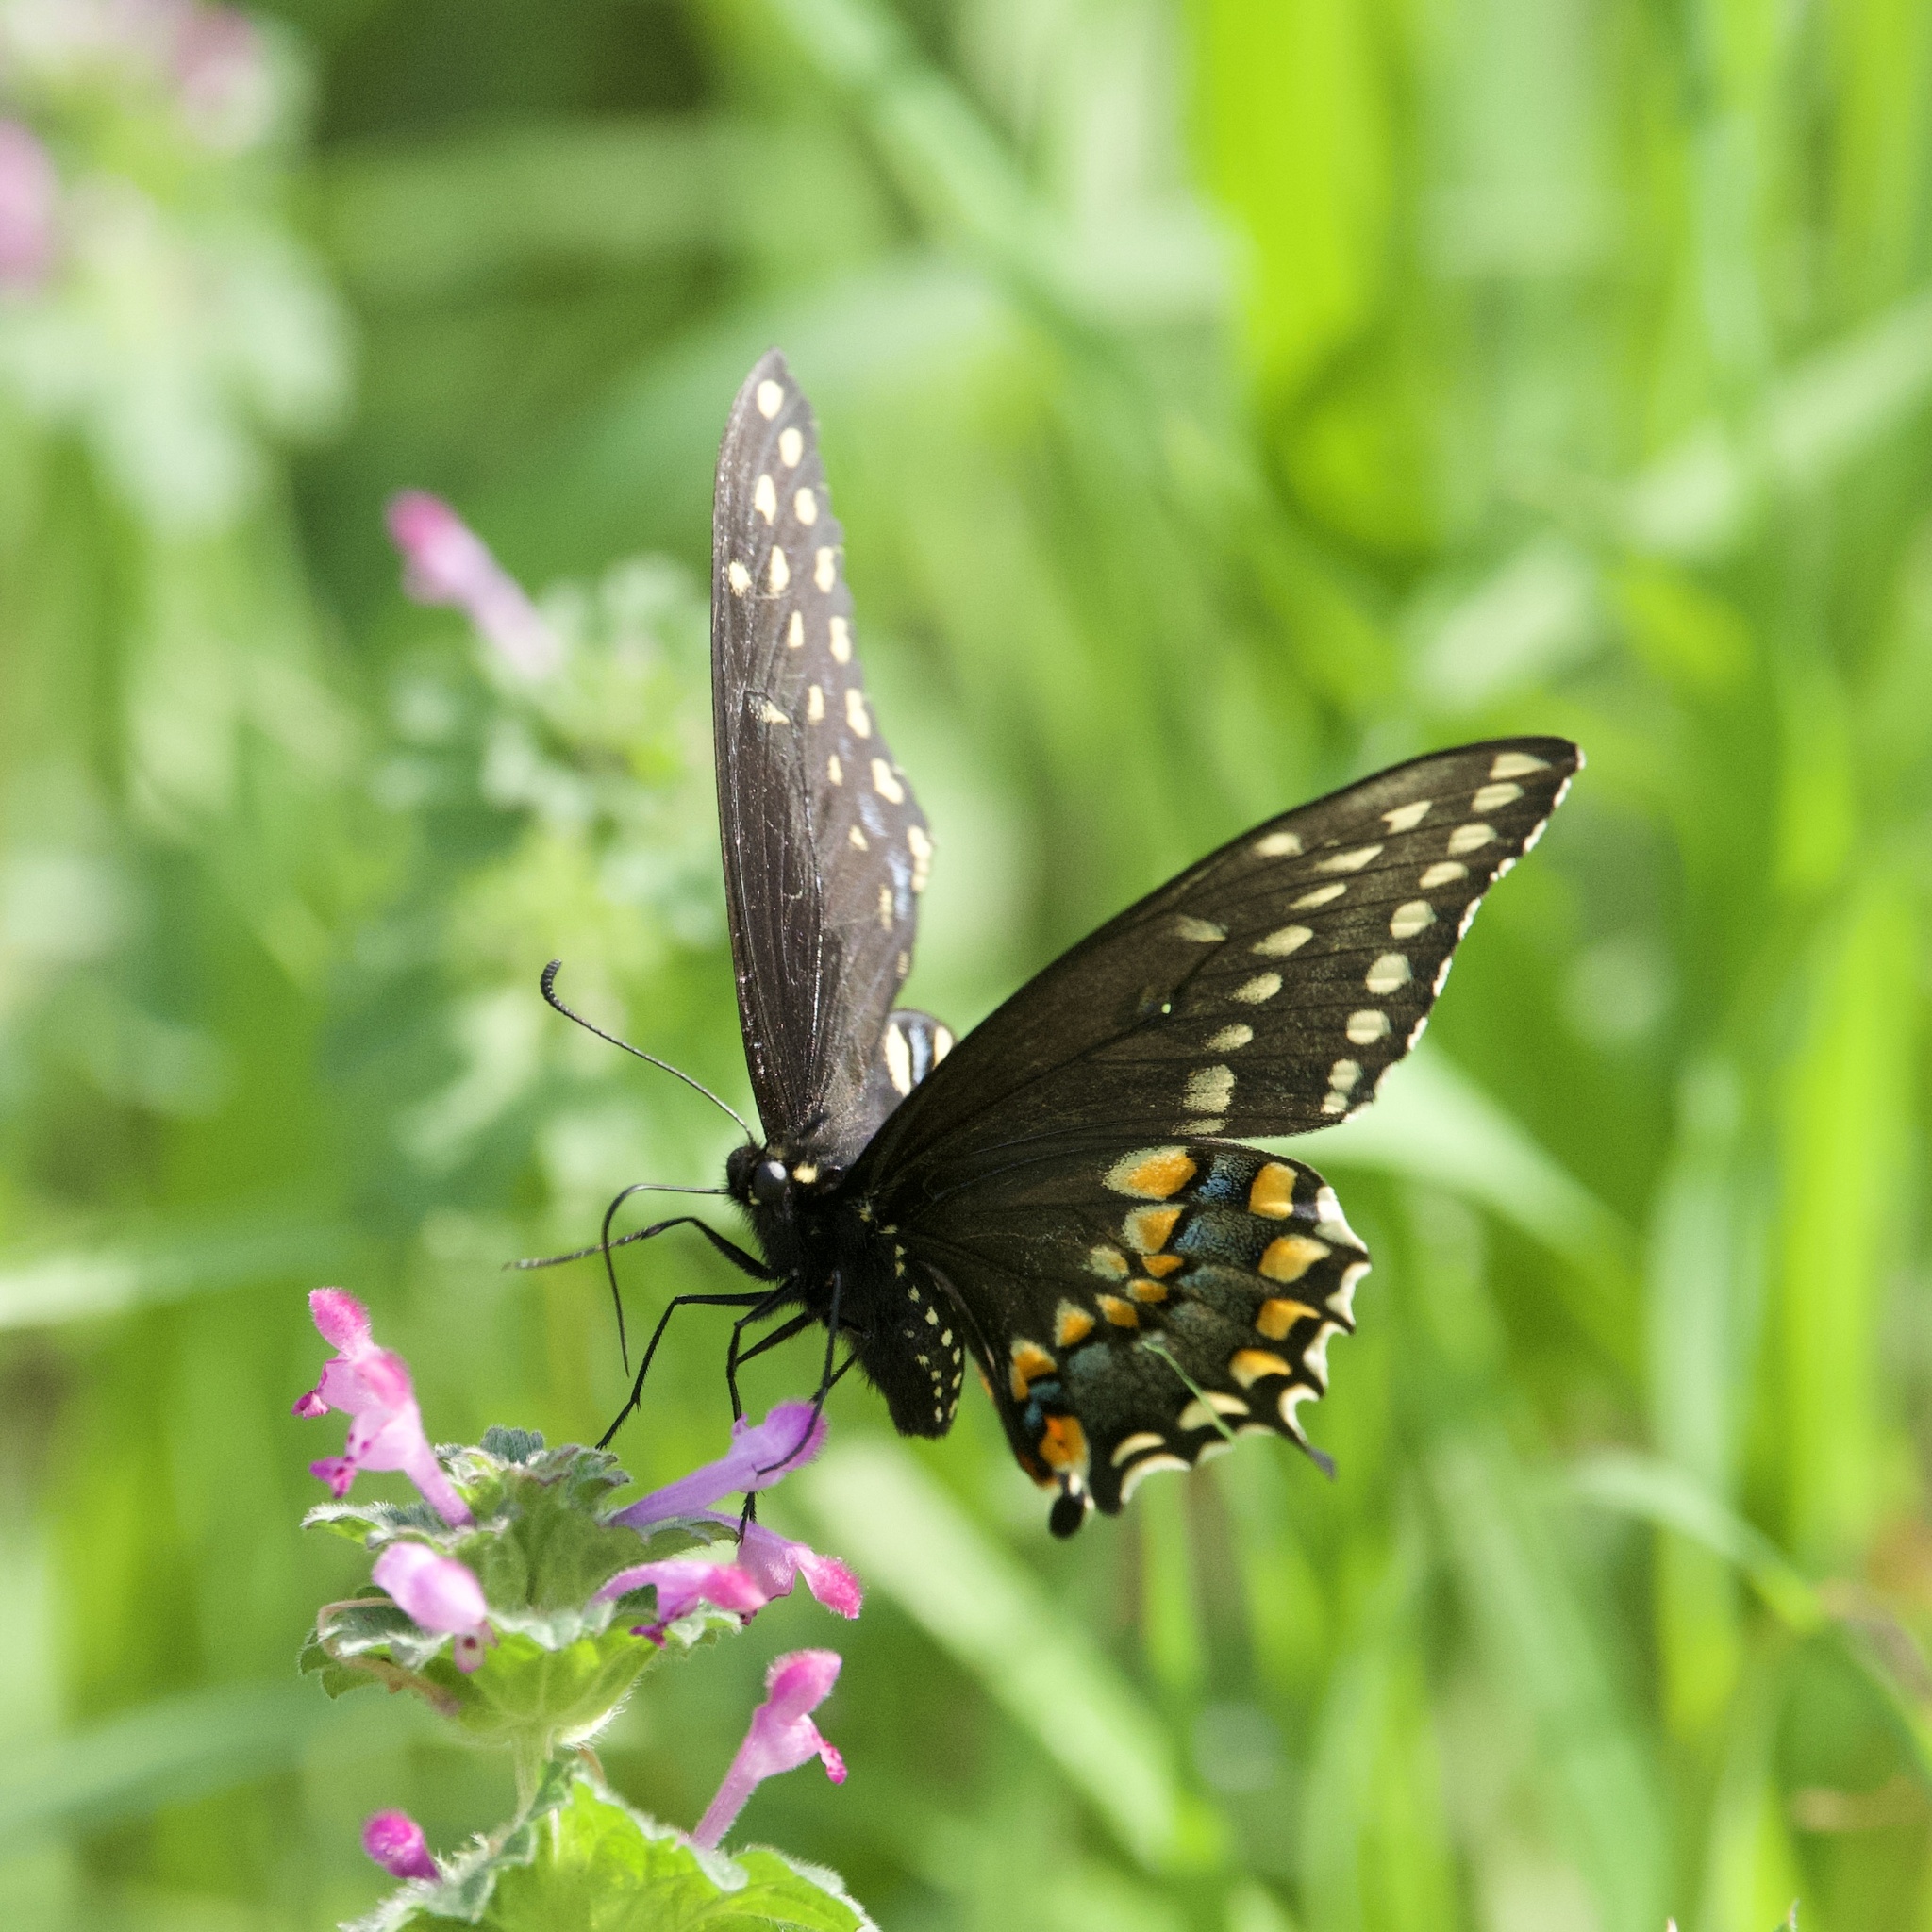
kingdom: Animalia
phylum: Arthropoda
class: Insecta
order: Lepidoptera
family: Papilionidae
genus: Papilio
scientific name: Papilio polyxenes
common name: Black swallowtail
